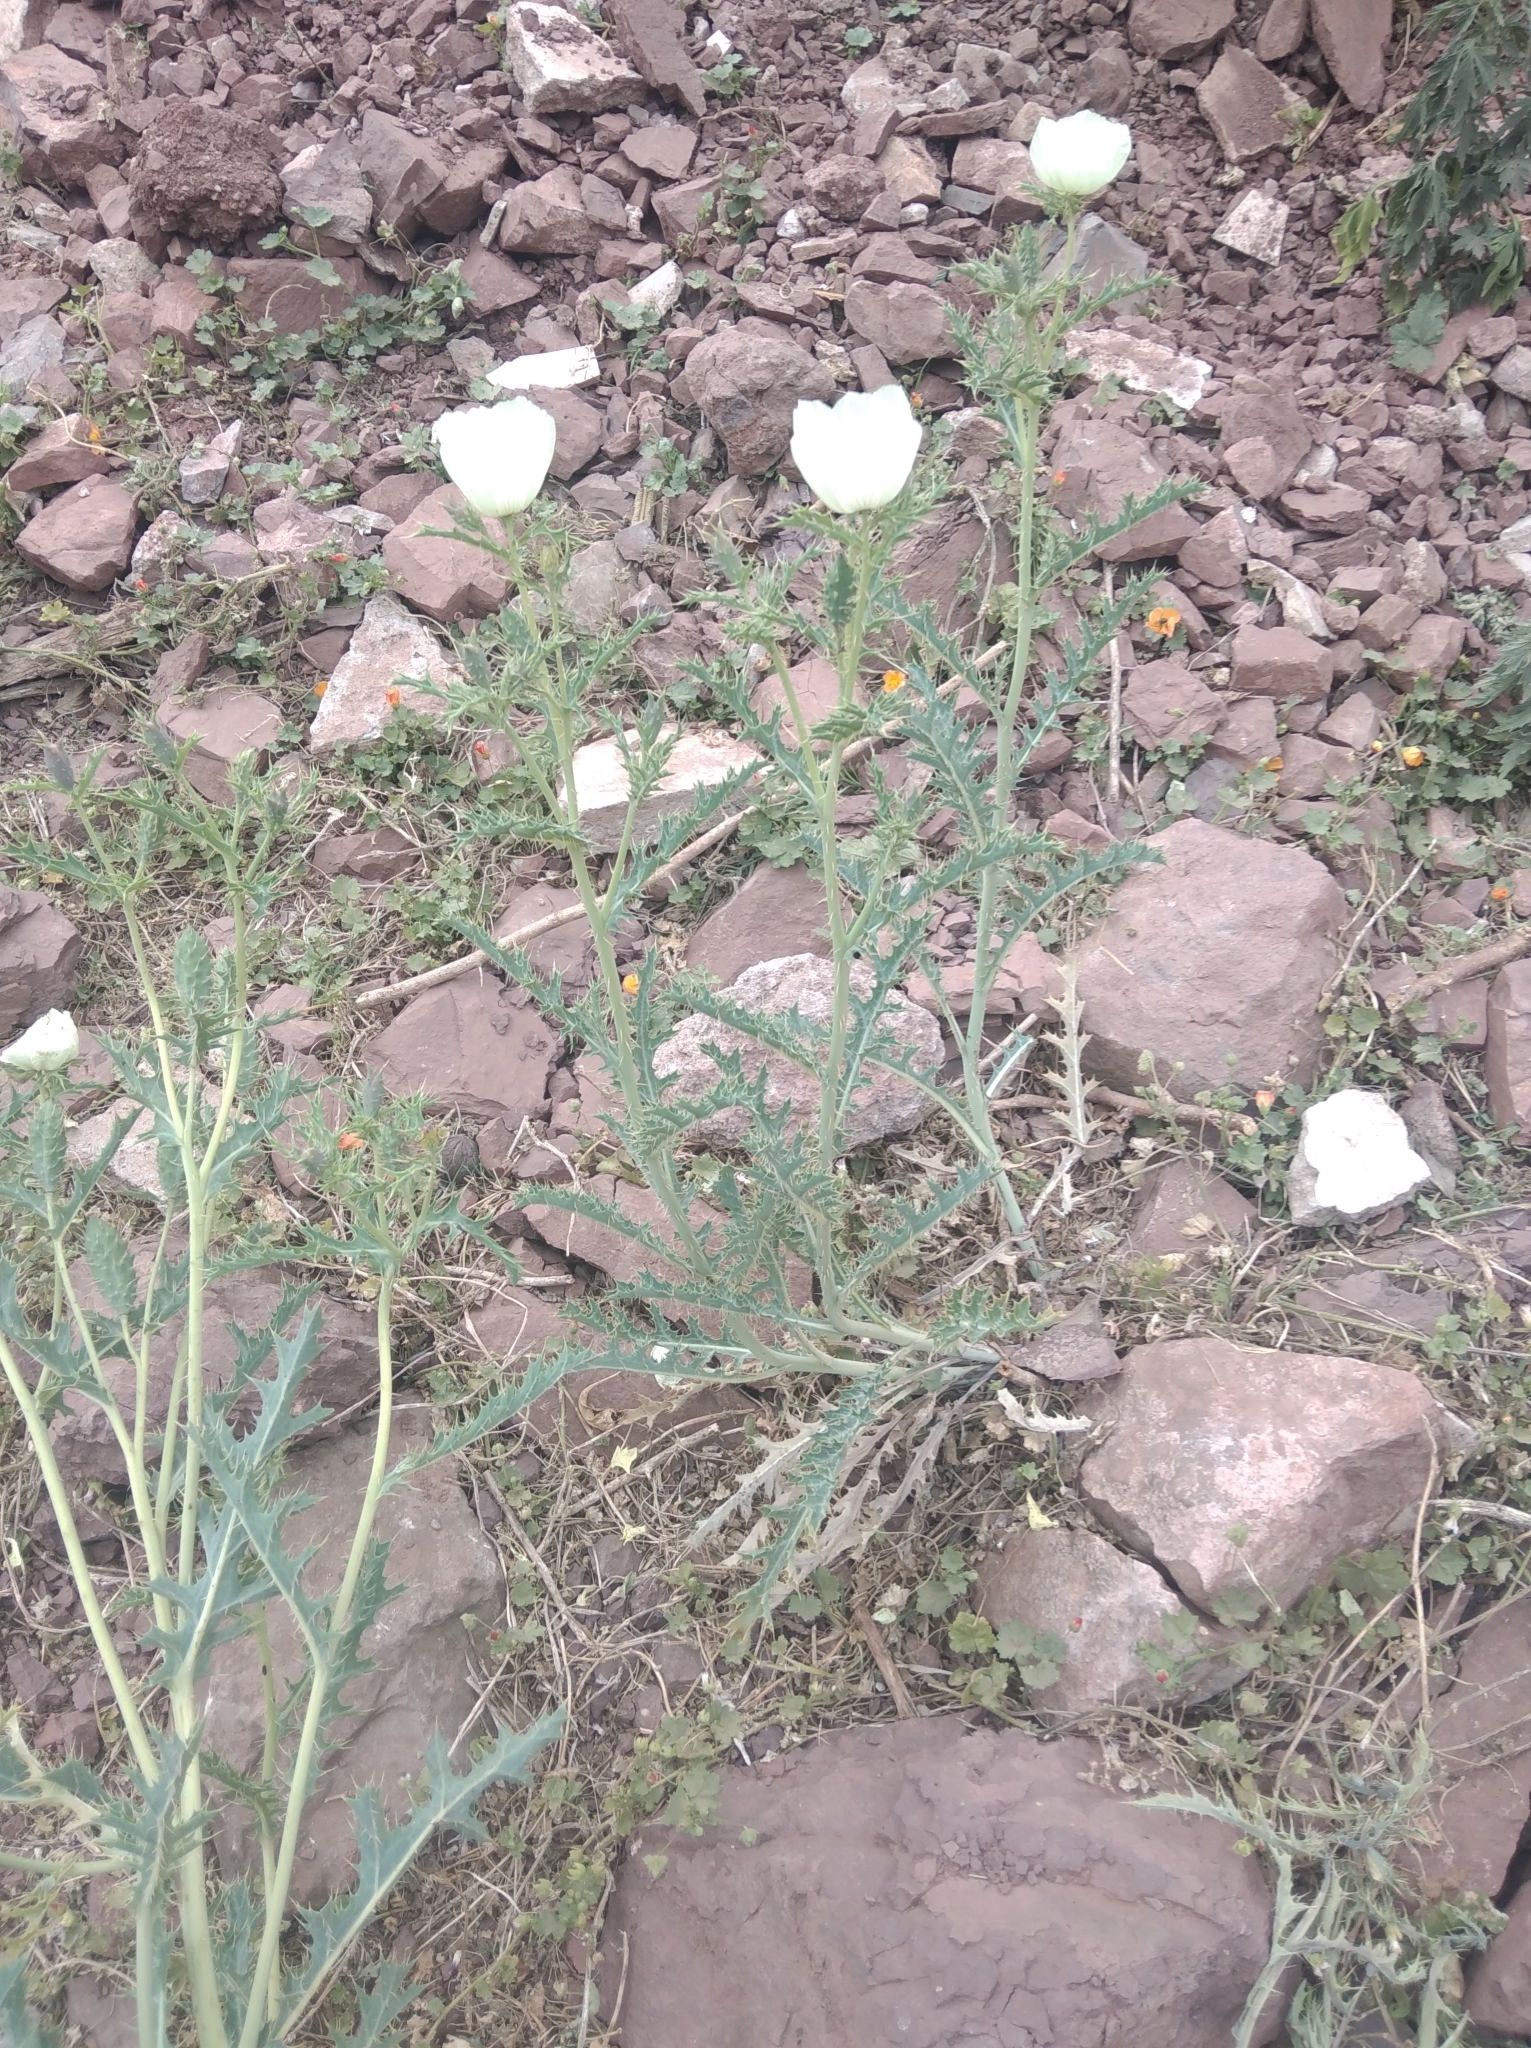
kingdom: Plantae
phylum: Tracheophyta
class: Magnoliopsida
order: Ranunculales
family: Papaveraceae
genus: Argemone
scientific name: Argemone subfusiformis
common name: American-poppy
